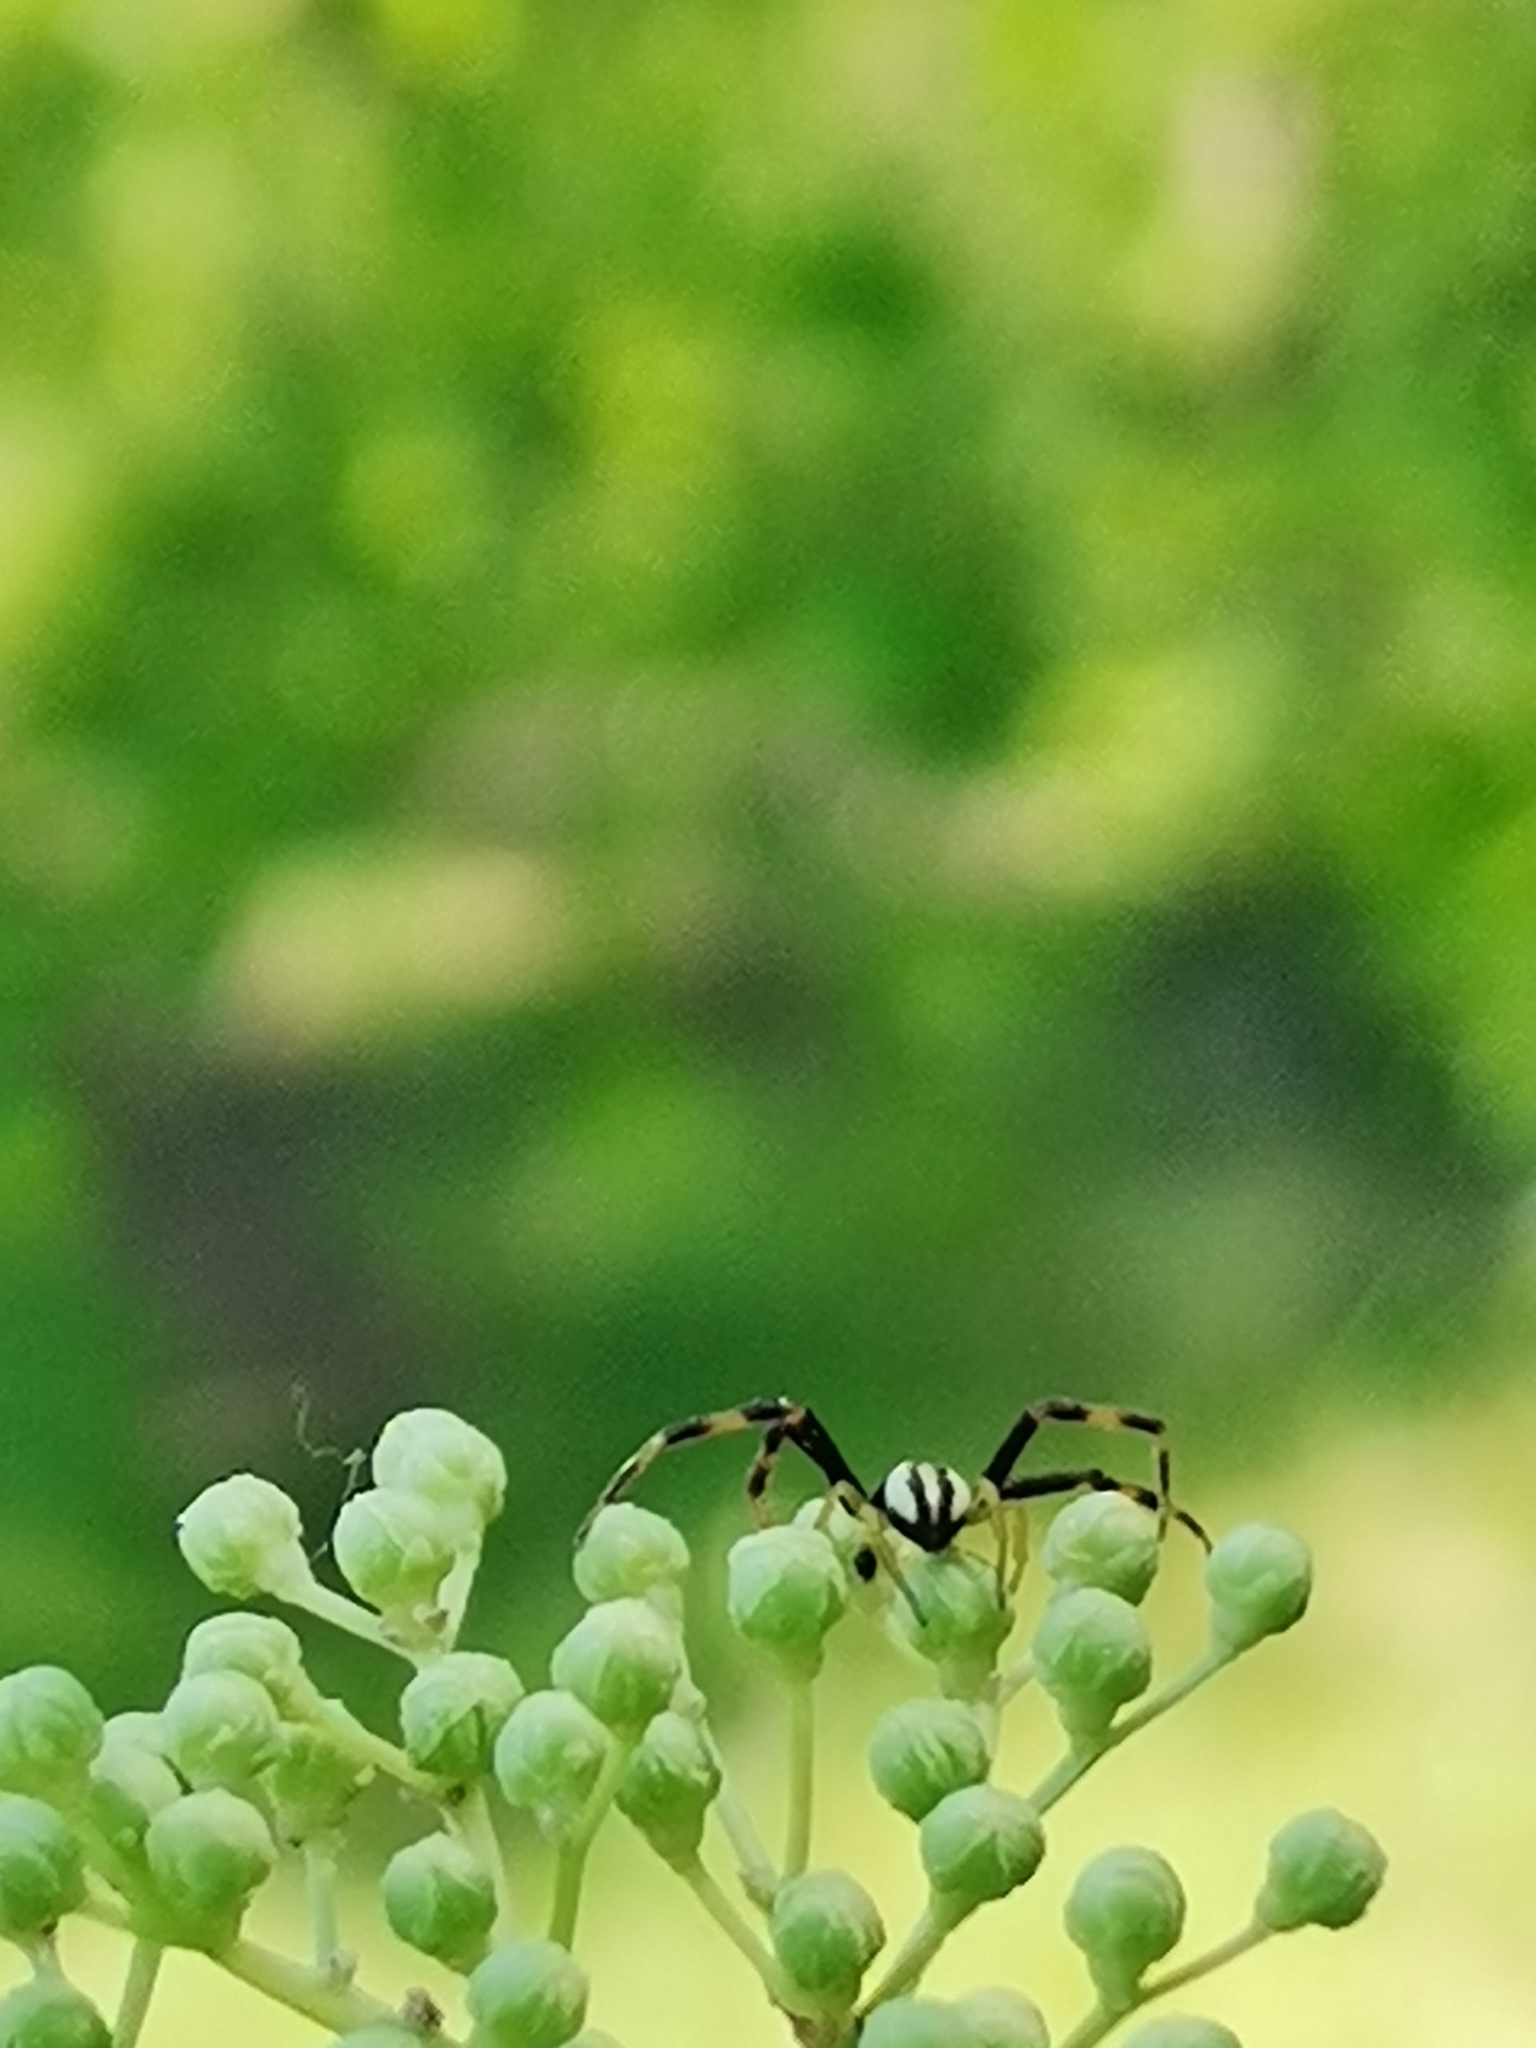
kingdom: Animalia
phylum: Arthropoda
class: Arachnida
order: Araneae
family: Thomisidae
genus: Misumena
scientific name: Misumena vatia
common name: Goldenrod crab spider
